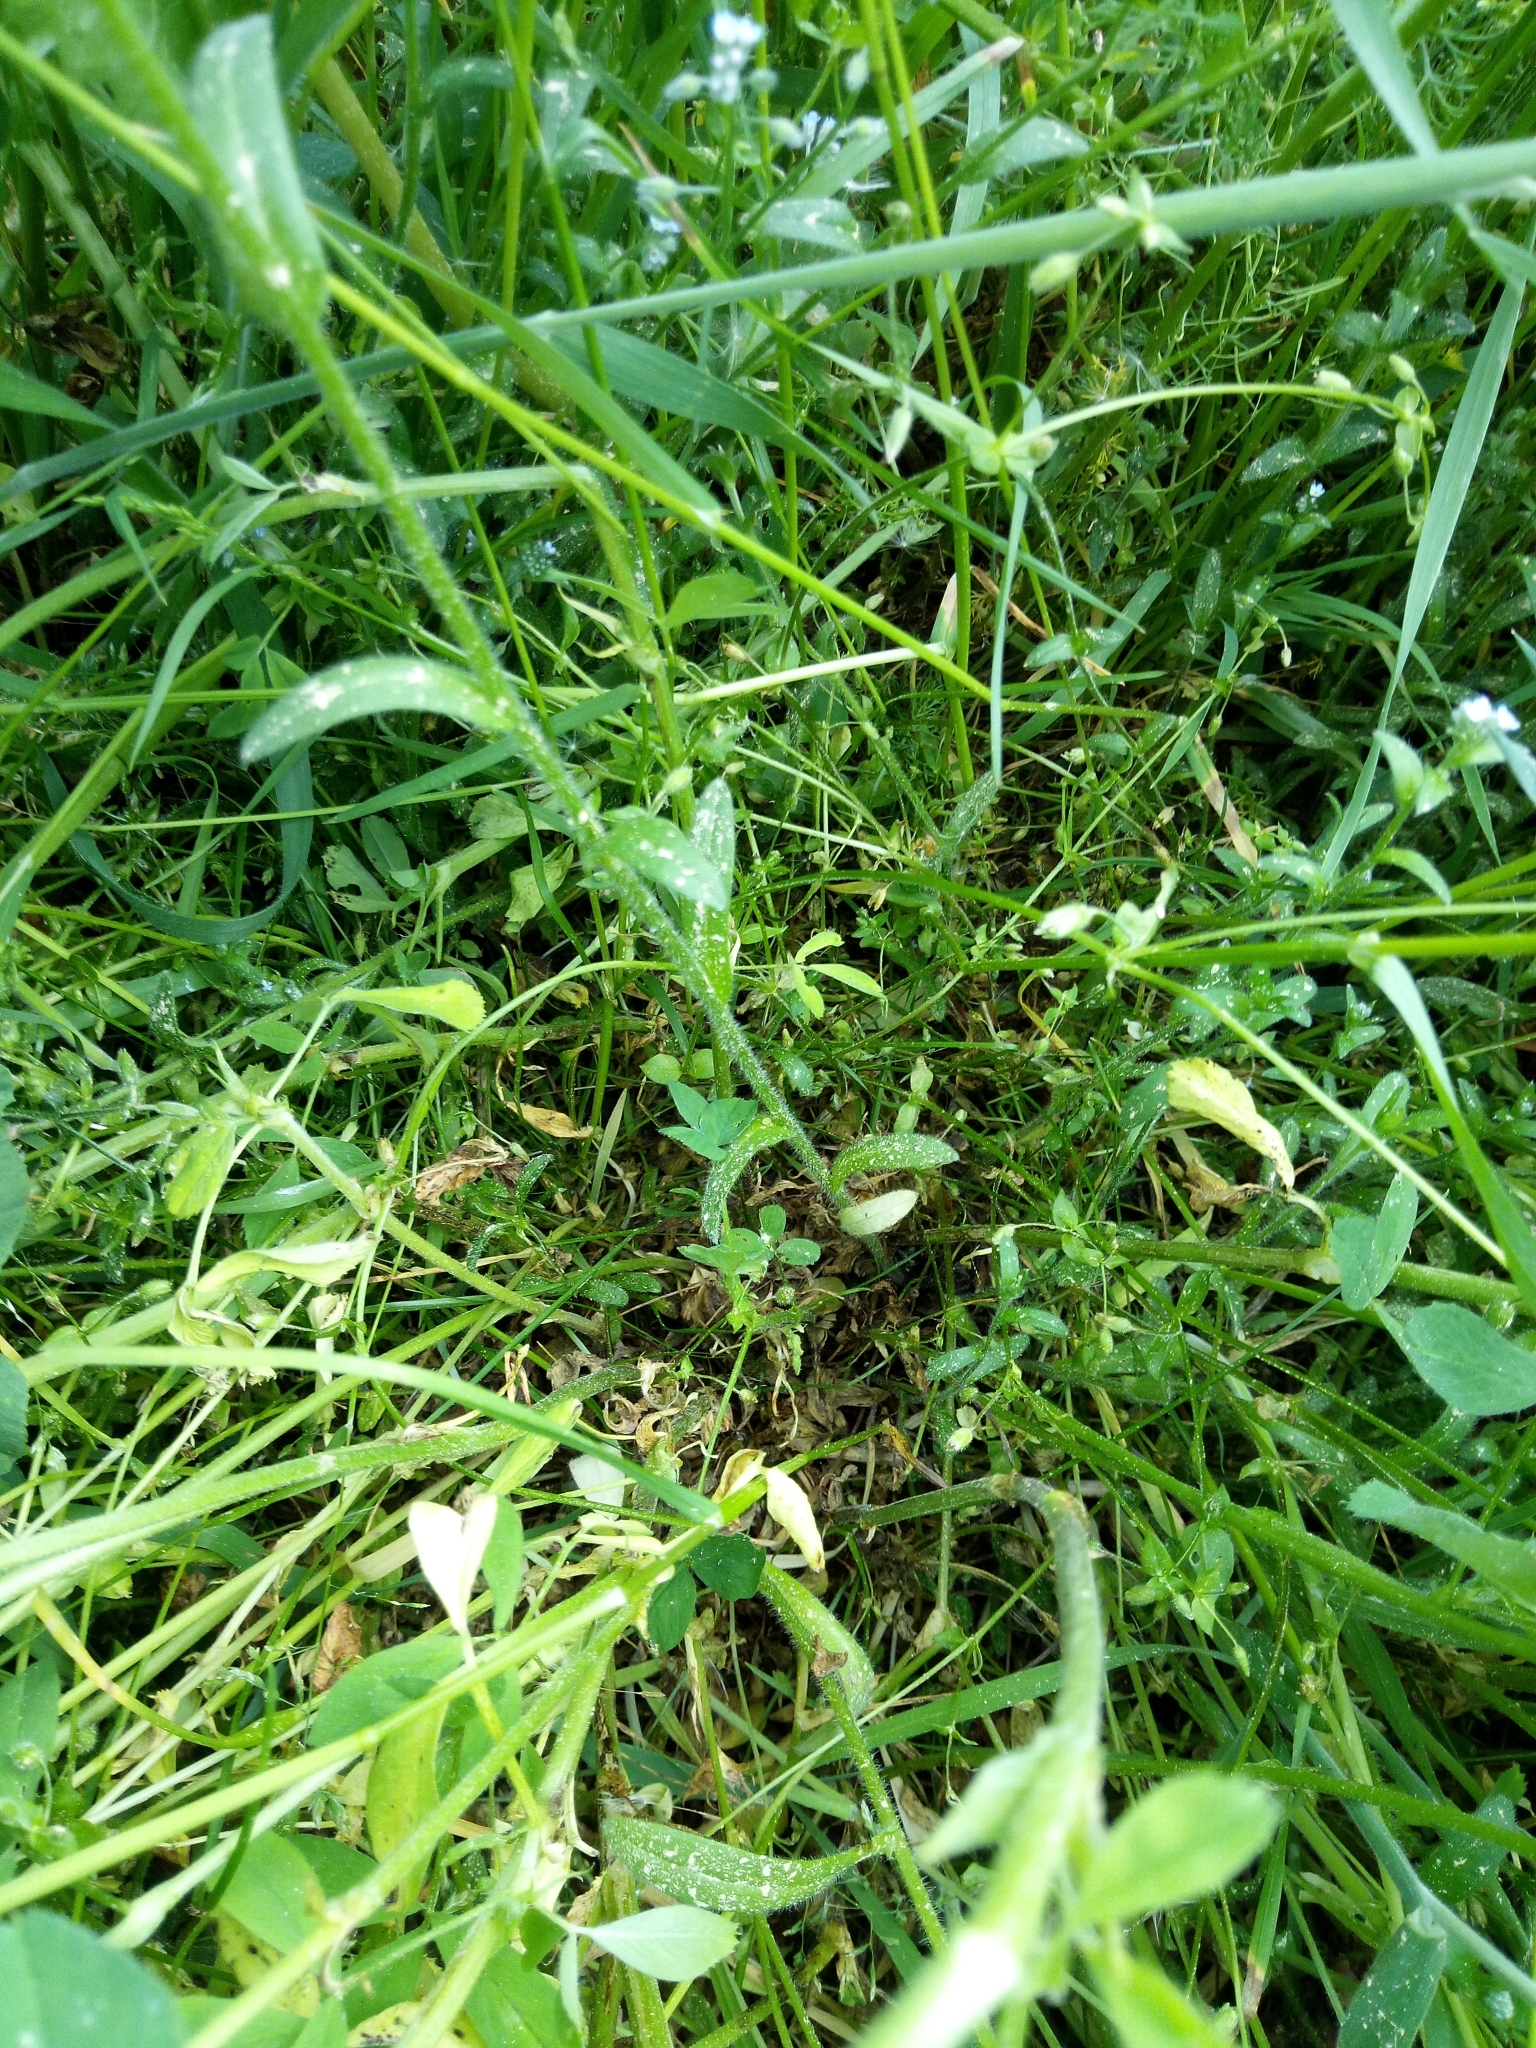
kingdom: Plantae
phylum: Tracheophyta
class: Magnoliopsida
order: Boraginales
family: Boraginaceae
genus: Myosotis
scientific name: Myosotis arvensis
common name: Field forget-me-not
